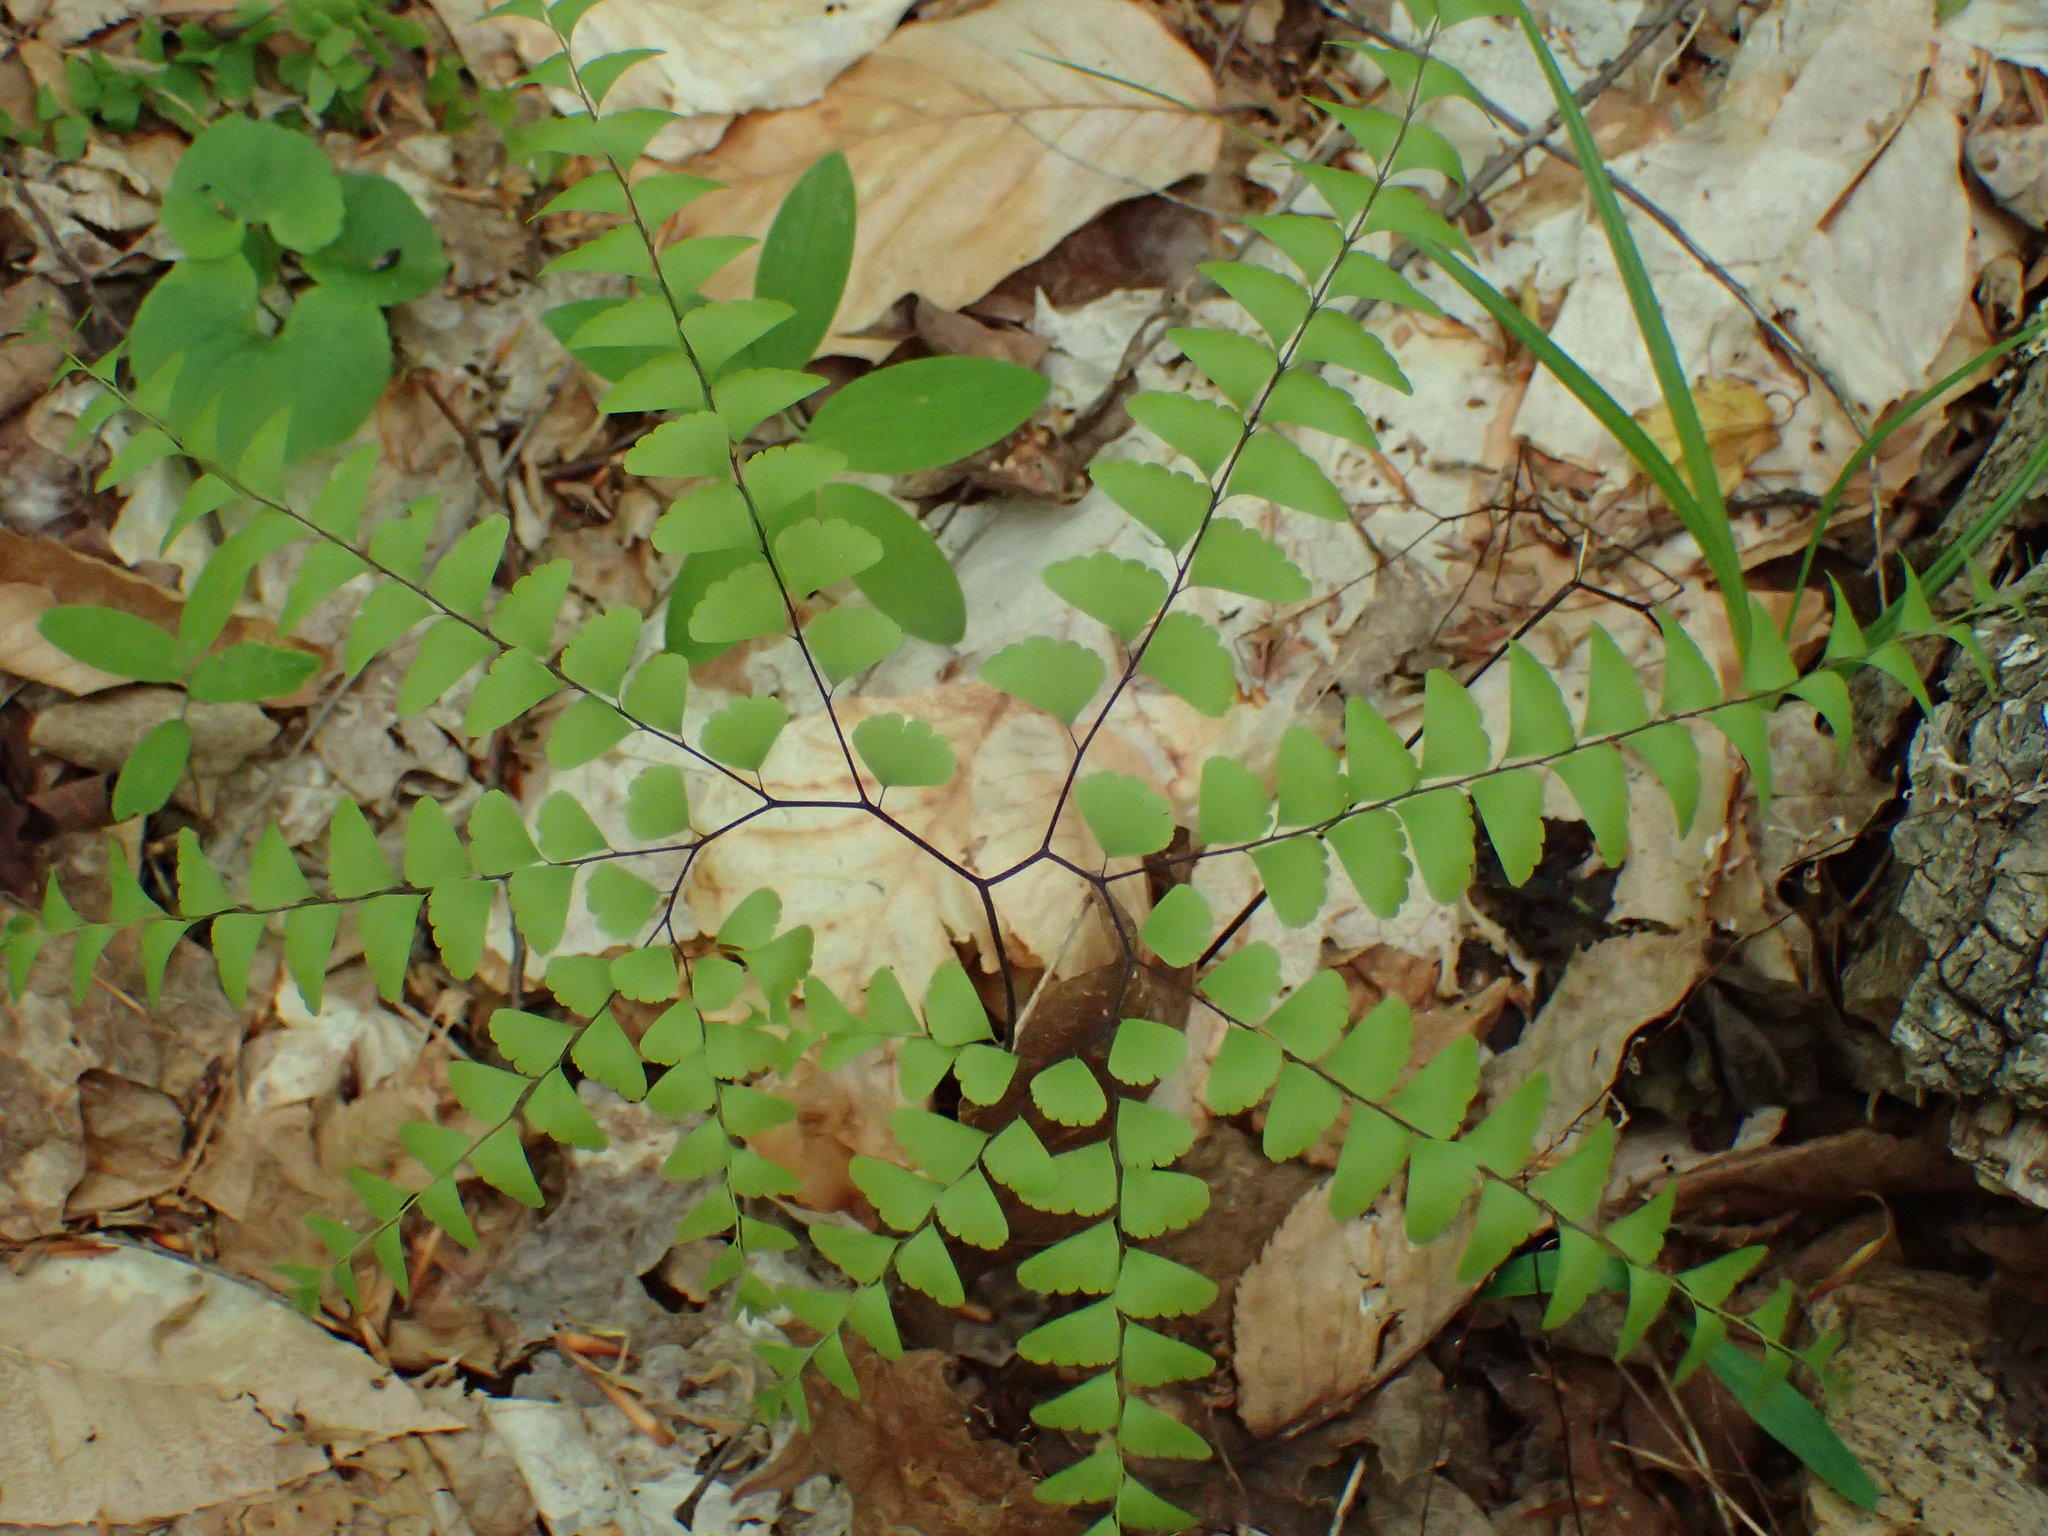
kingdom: Plantae
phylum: Tracheophyta
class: Polypodiopsida
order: Polypodiales
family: Pteridaceae
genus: Adiantum
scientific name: Adiantum pedatum
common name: Five-finger fern
